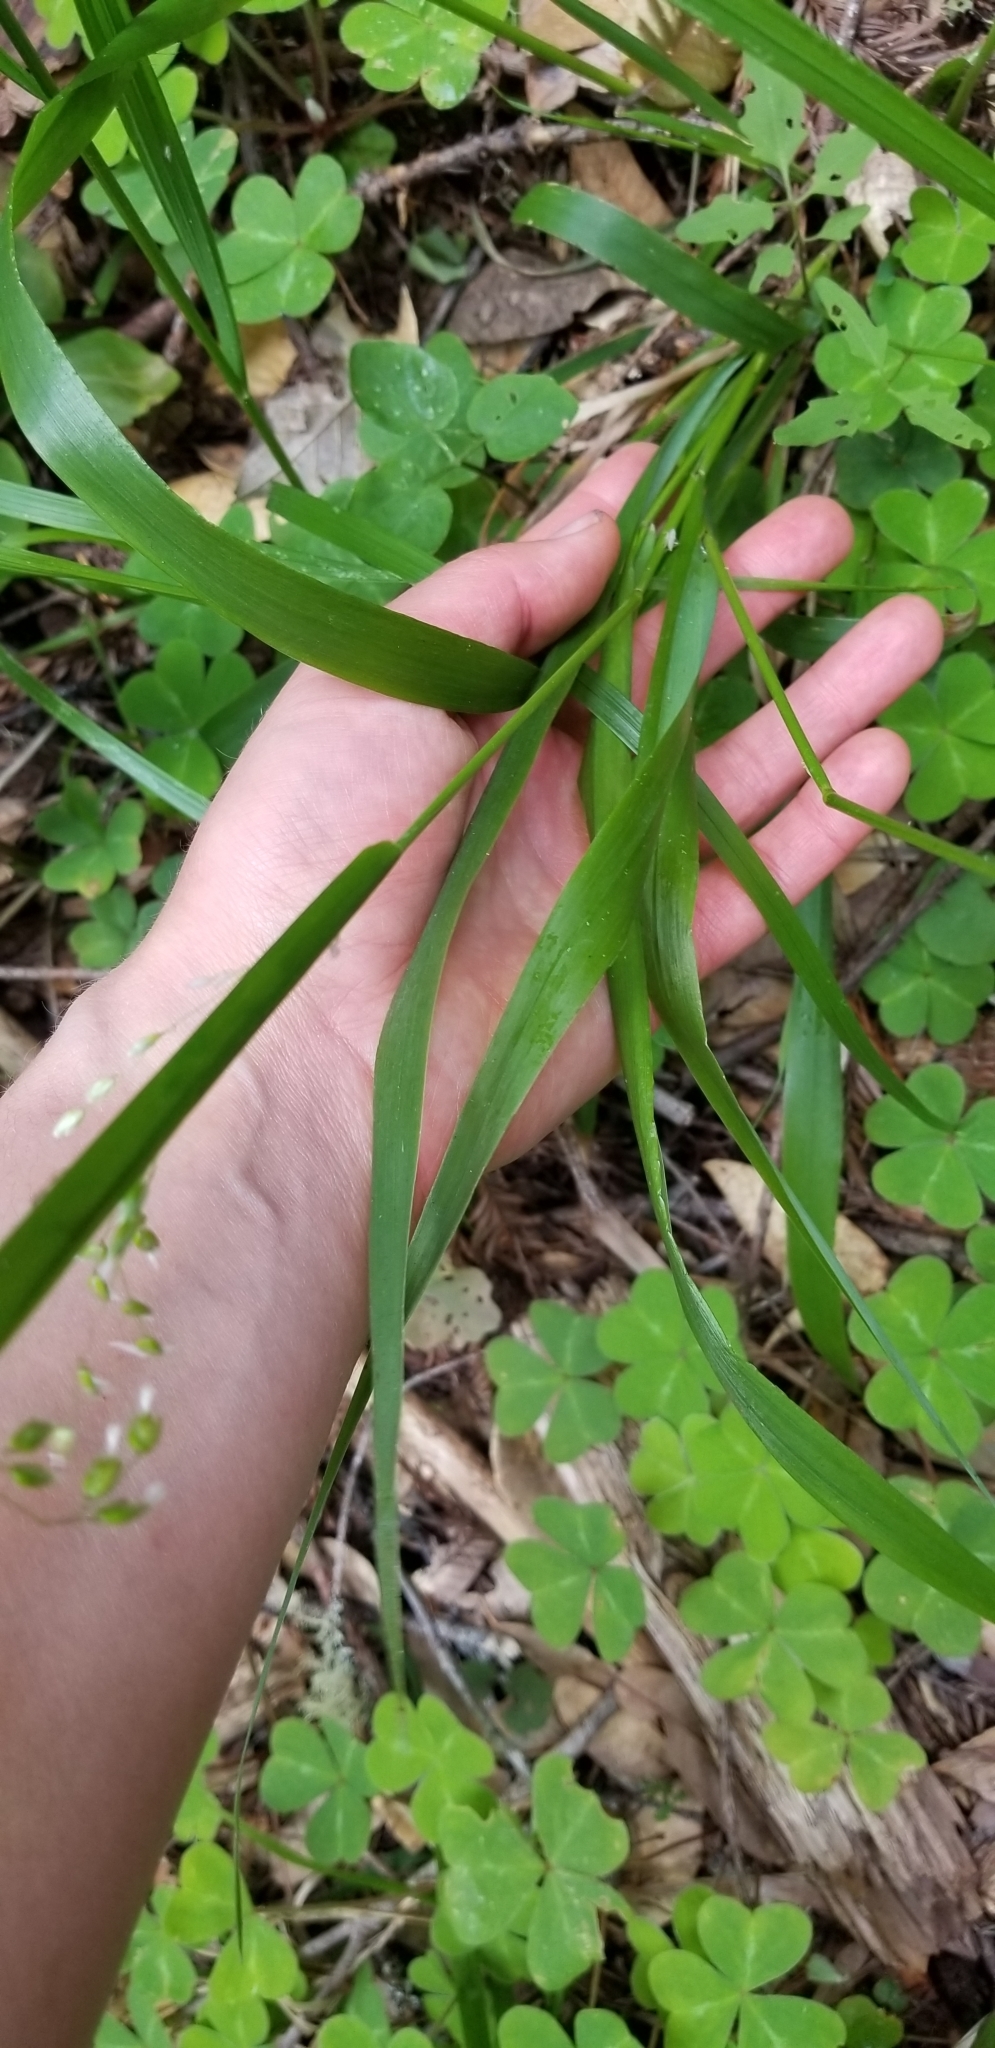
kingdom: Plantae
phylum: Tracheophyta
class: Liliopsida
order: Poales
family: Poaceae
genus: Anthoxanthum
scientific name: Anthoxanthum occidentale
